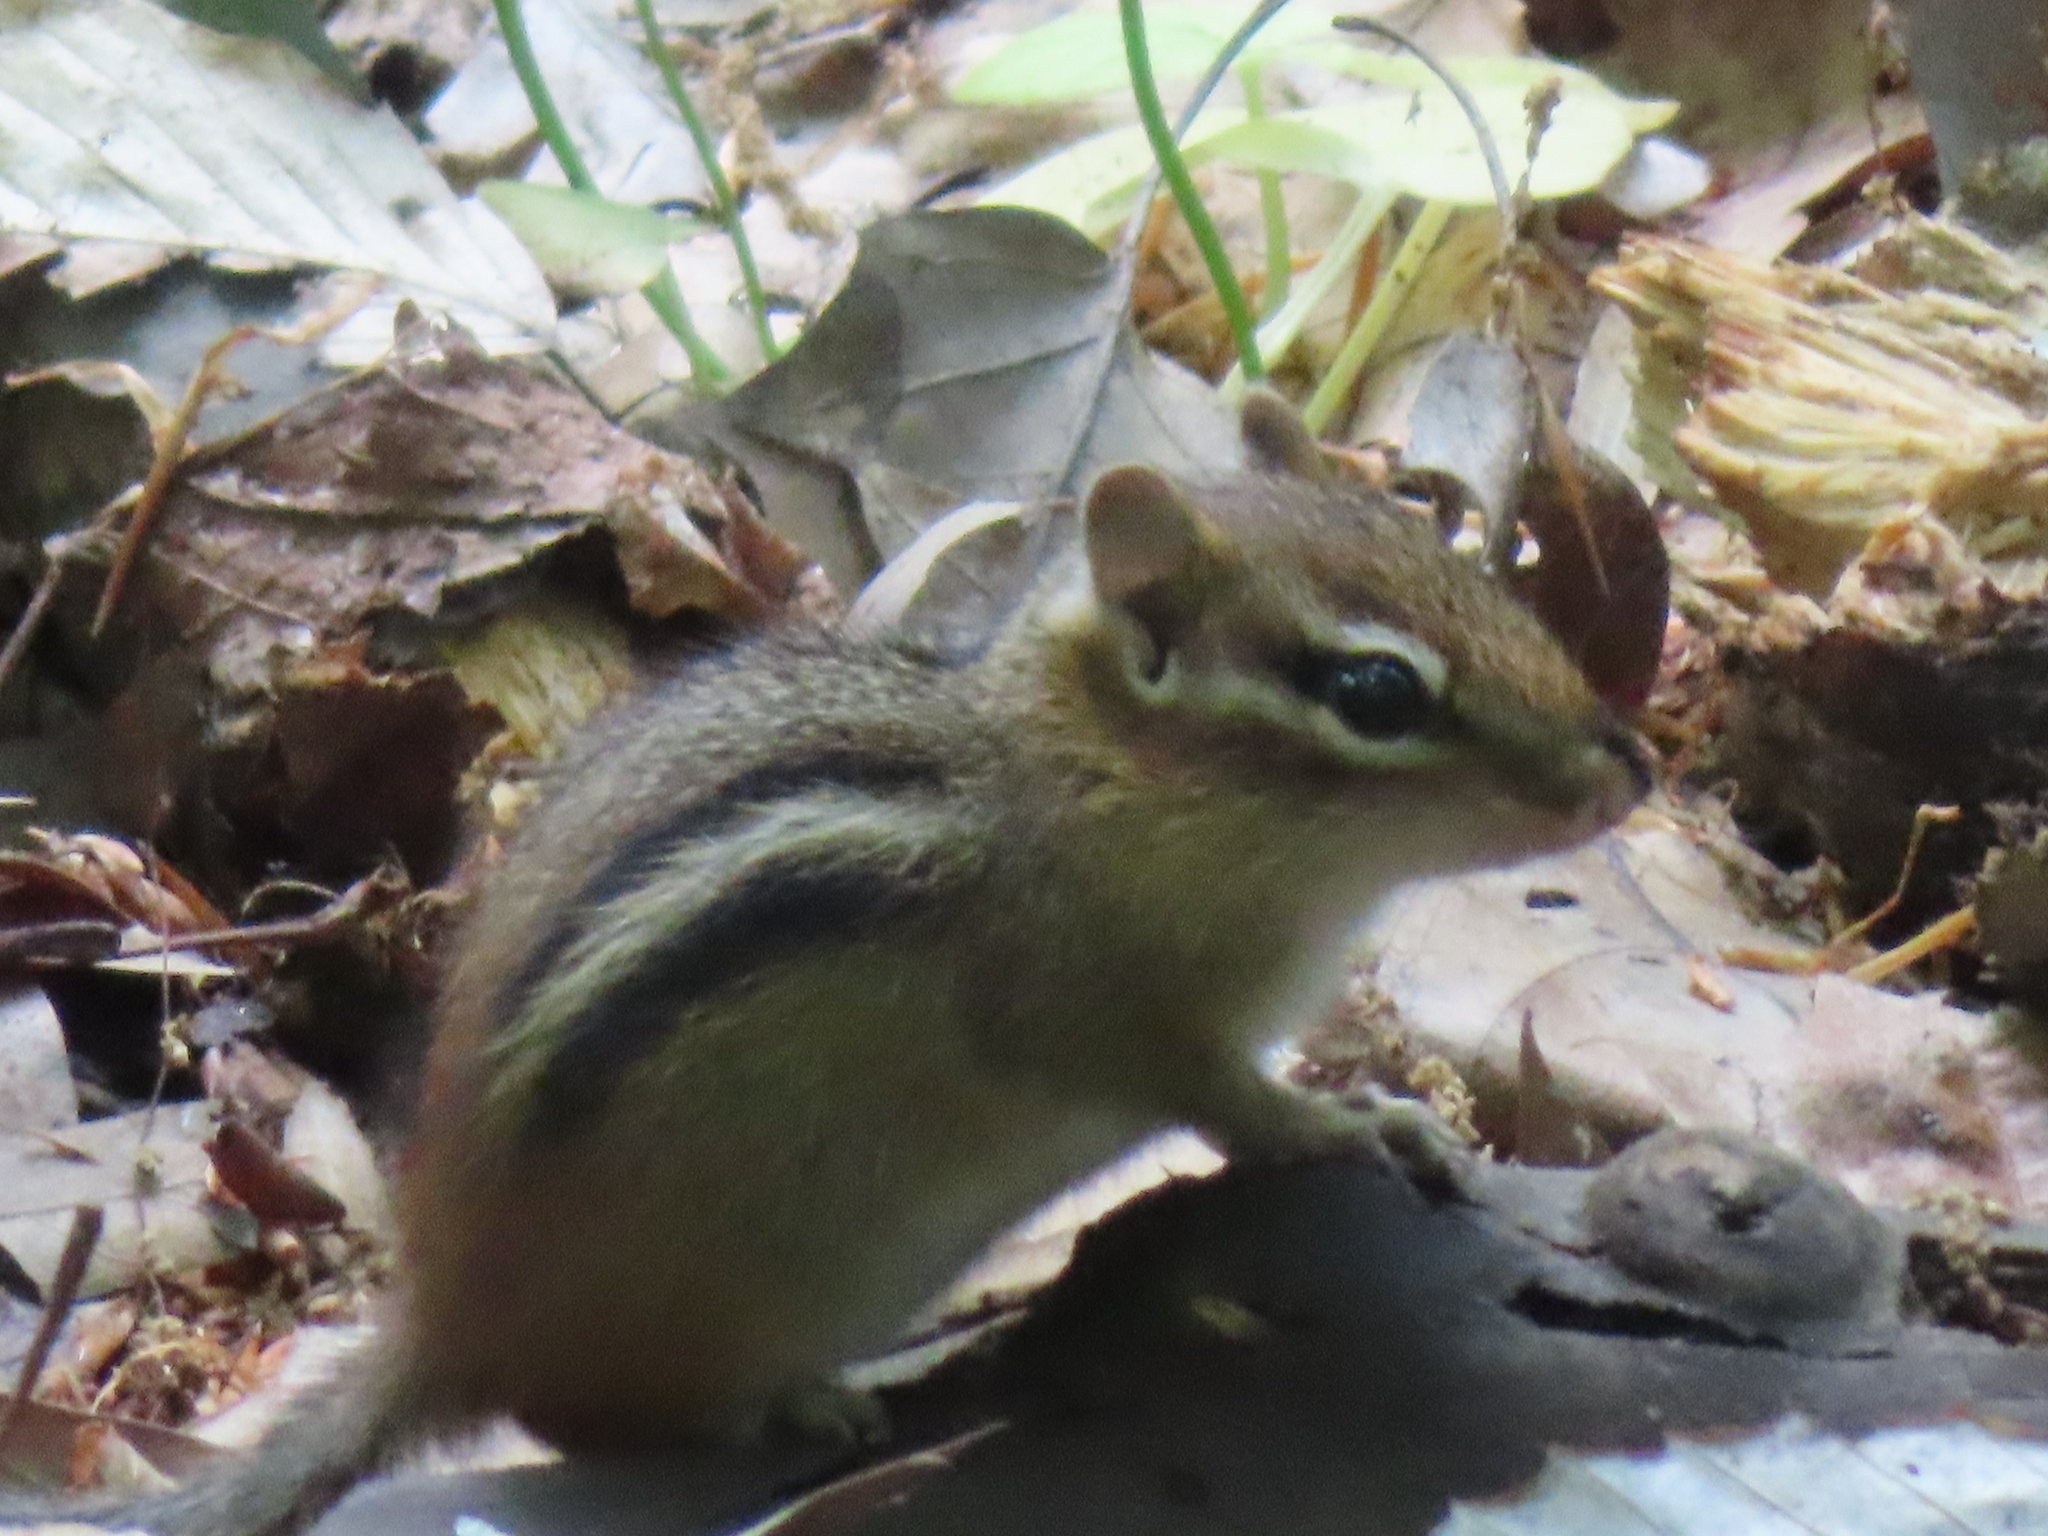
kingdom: Animalia
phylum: Chordata
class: Mammalia
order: Rodentia
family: Sciuridae
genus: Tamias
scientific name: Tamias striatus
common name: Eastern chipmunk
